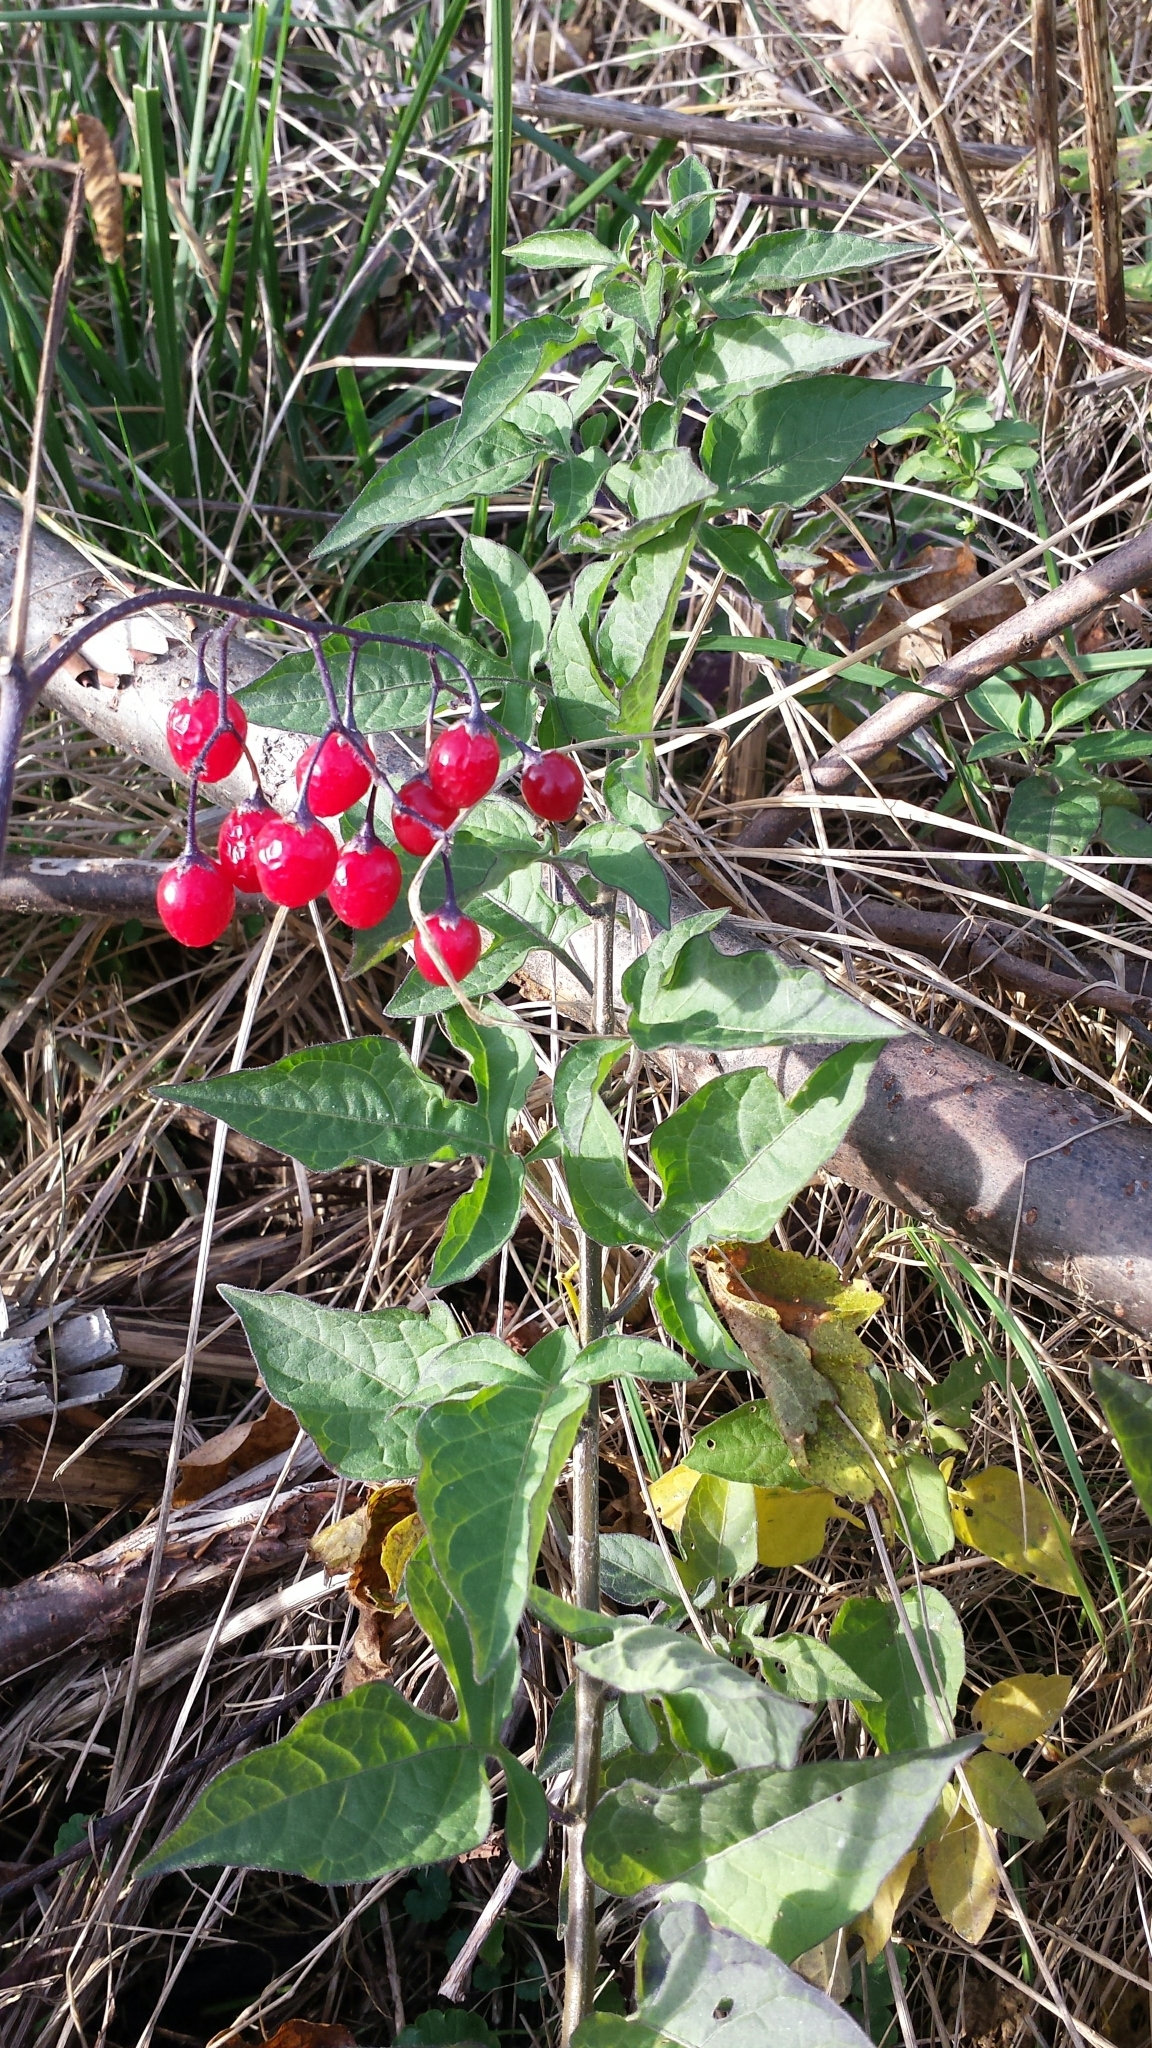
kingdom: Plantae
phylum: Tracheophyta
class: Magnoliopsida
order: Solanales
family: Solanaceae
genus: Solanum
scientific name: Solanum dulcamara
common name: Climbing nightshade
